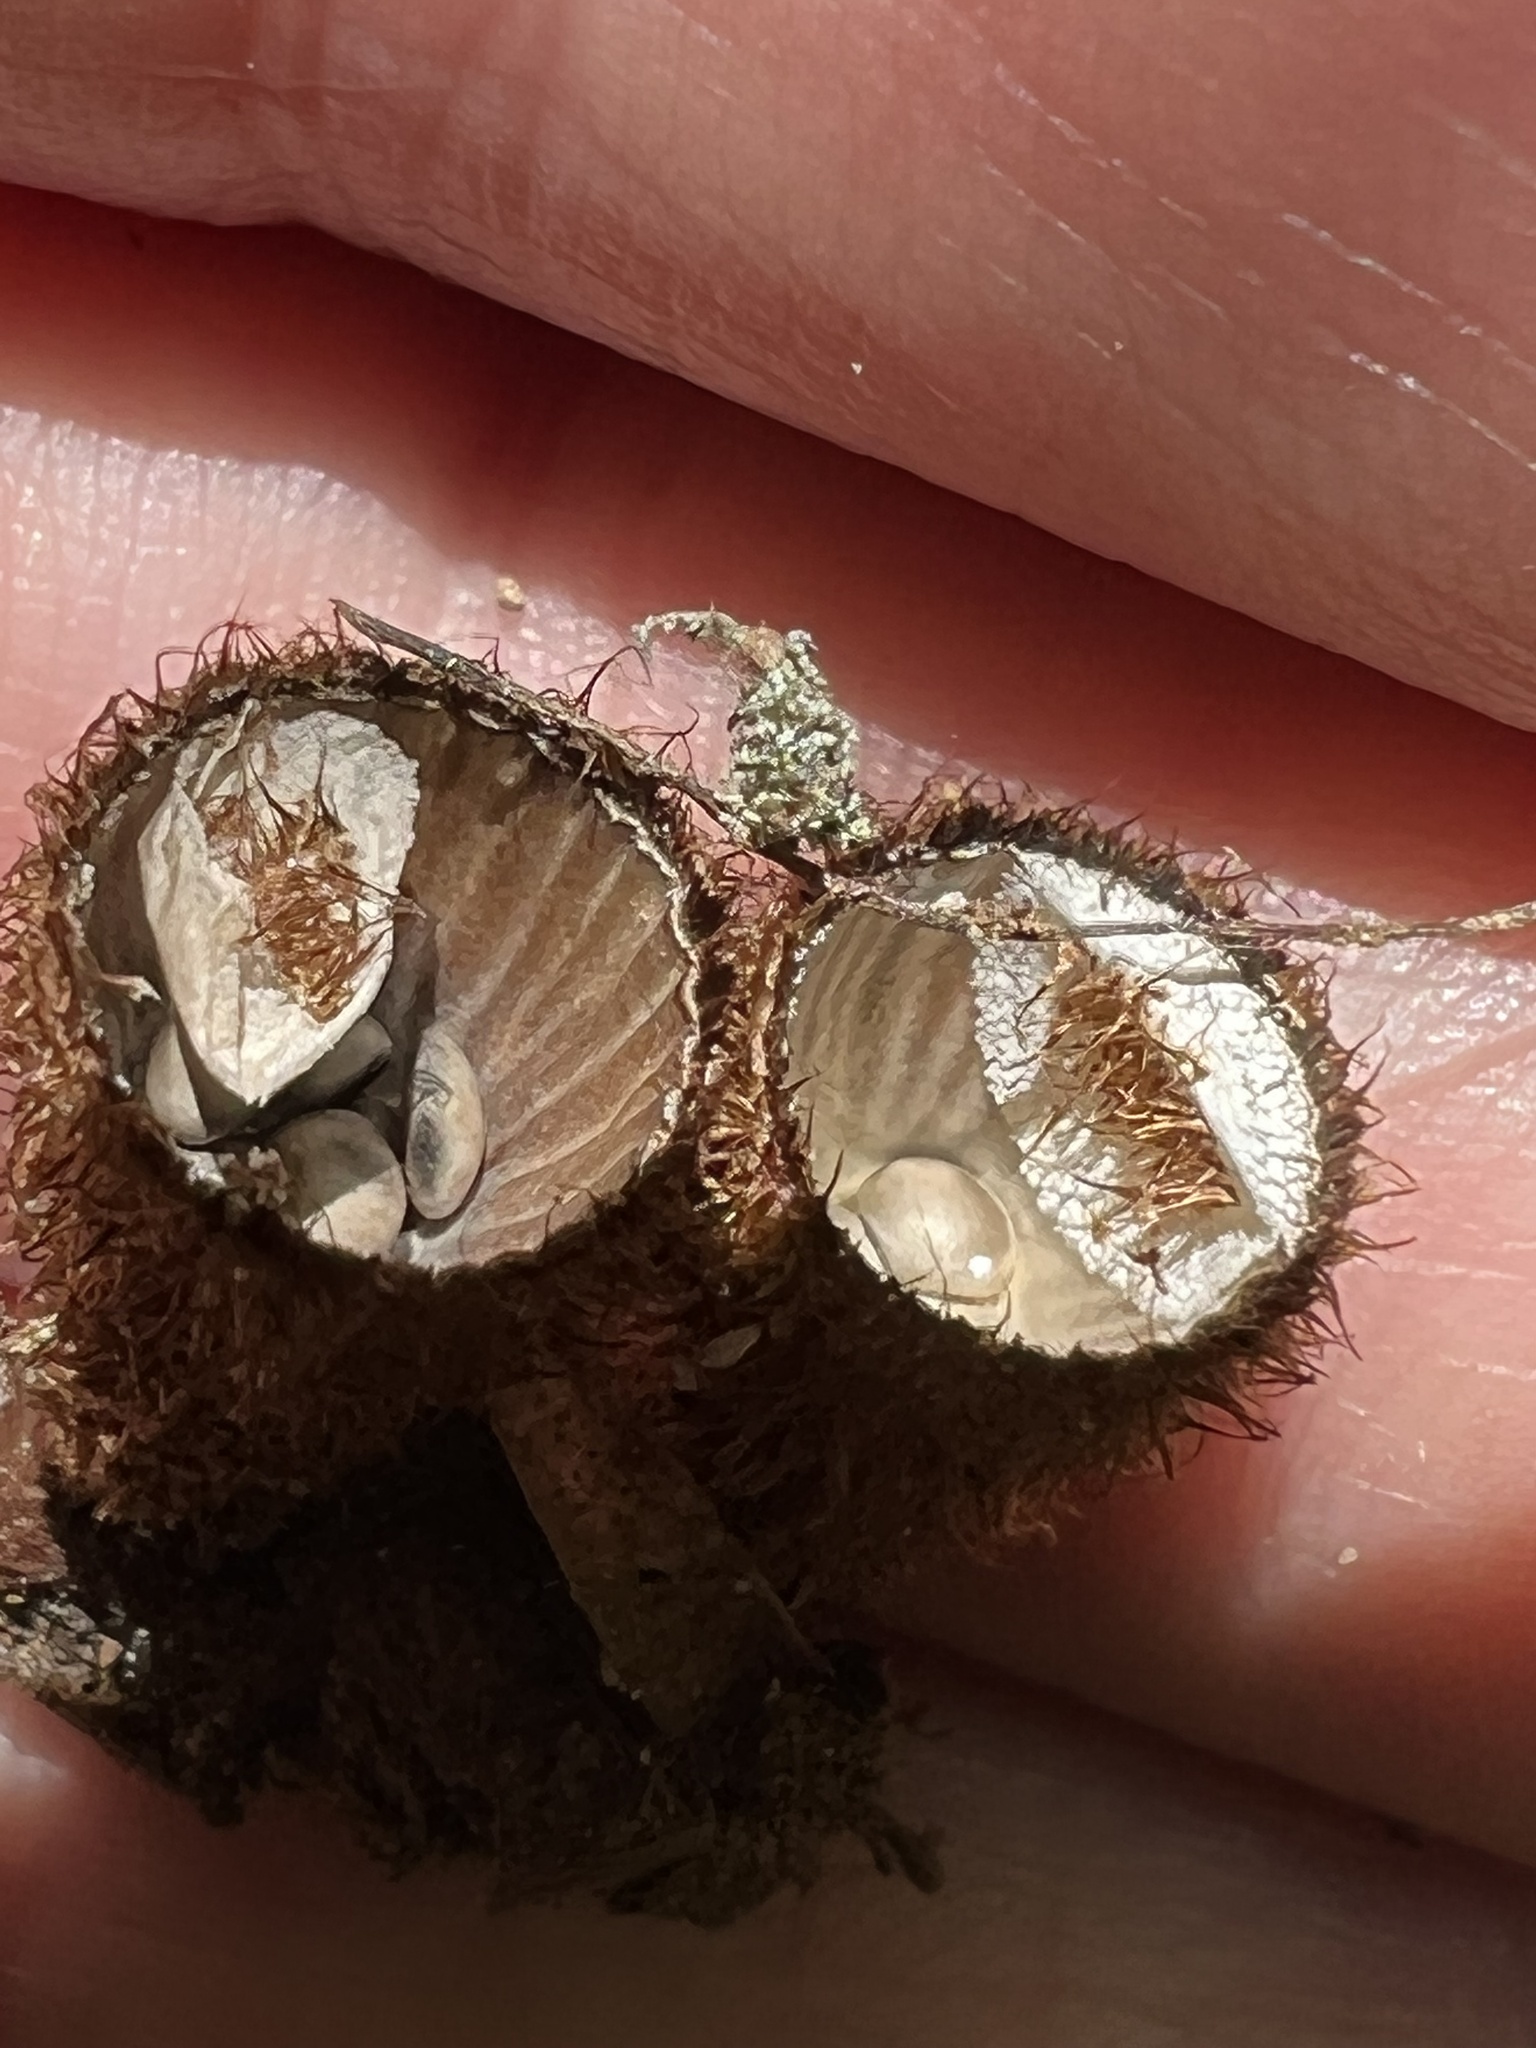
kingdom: Fungi
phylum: Basidiomycota
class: Agaricomycetes
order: Agaricales
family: Agaricaceae
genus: Cyathus
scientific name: Cyathus striatus
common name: Fluted bird's nest
